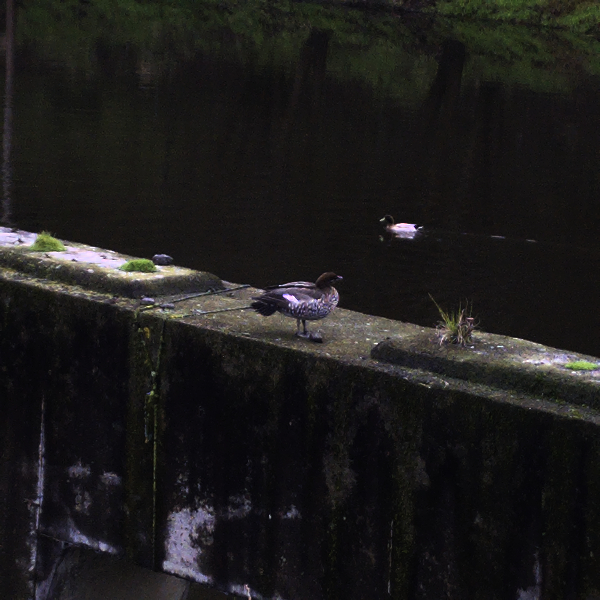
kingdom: Animalia
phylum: Chordata
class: Aves
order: Anseriformes
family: Anatidae
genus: Chenonetta
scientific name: Chenonetta jubata
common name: Maned duck
